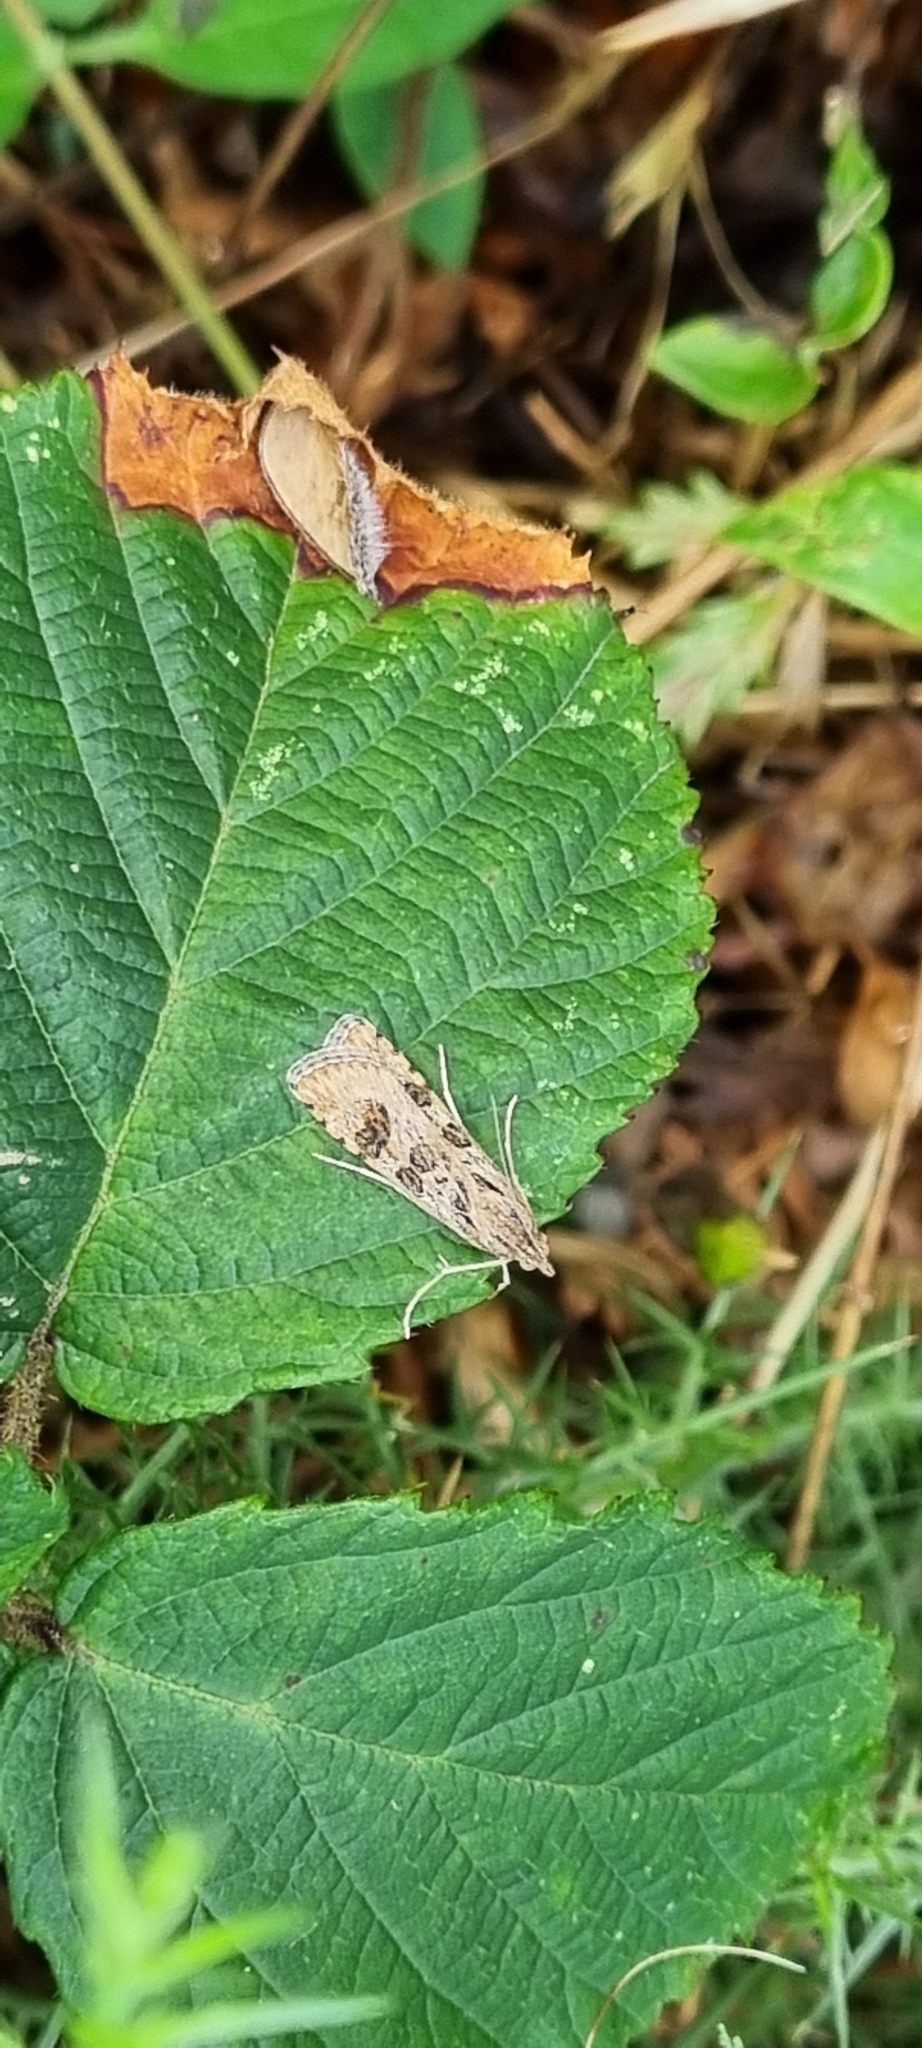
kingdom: Animalia
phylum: Arthropoda
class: Insecta
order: Lepidoptera
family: Crambidae
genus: Nomophila
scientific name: Nomophila noctuella
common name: Rush veneer
